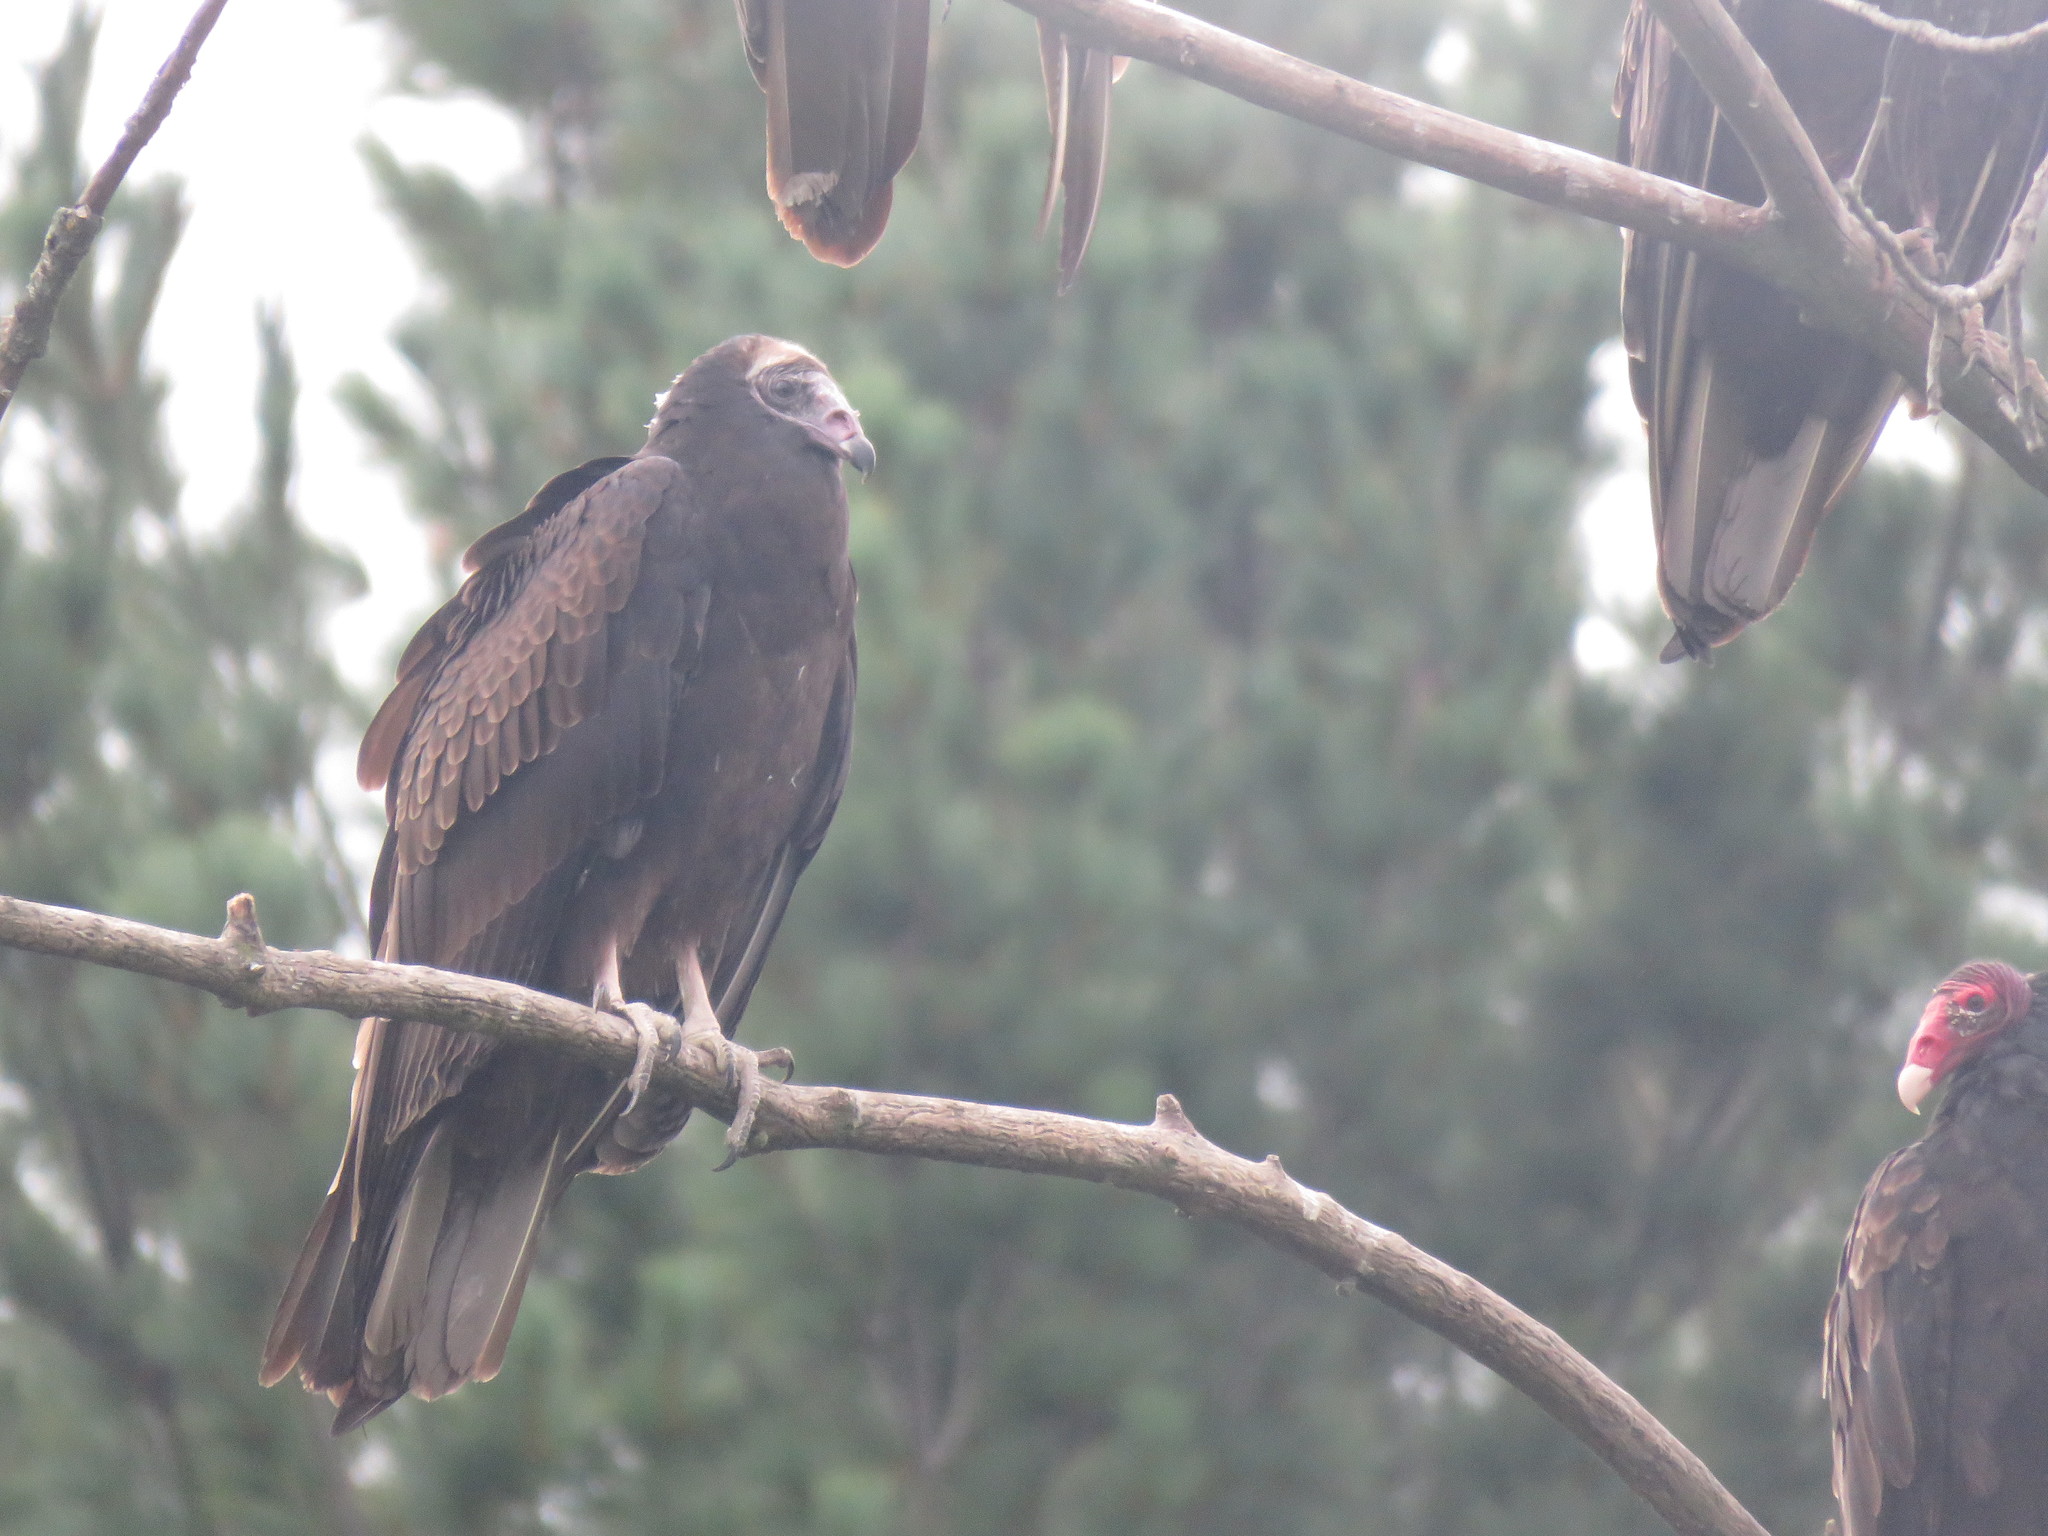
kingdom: Animalia
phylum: Chordata
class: Aves
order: Accipitriformes
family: Cathartidae
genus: Cathartes
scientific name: Cathartes aura
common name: Turkey vulture
